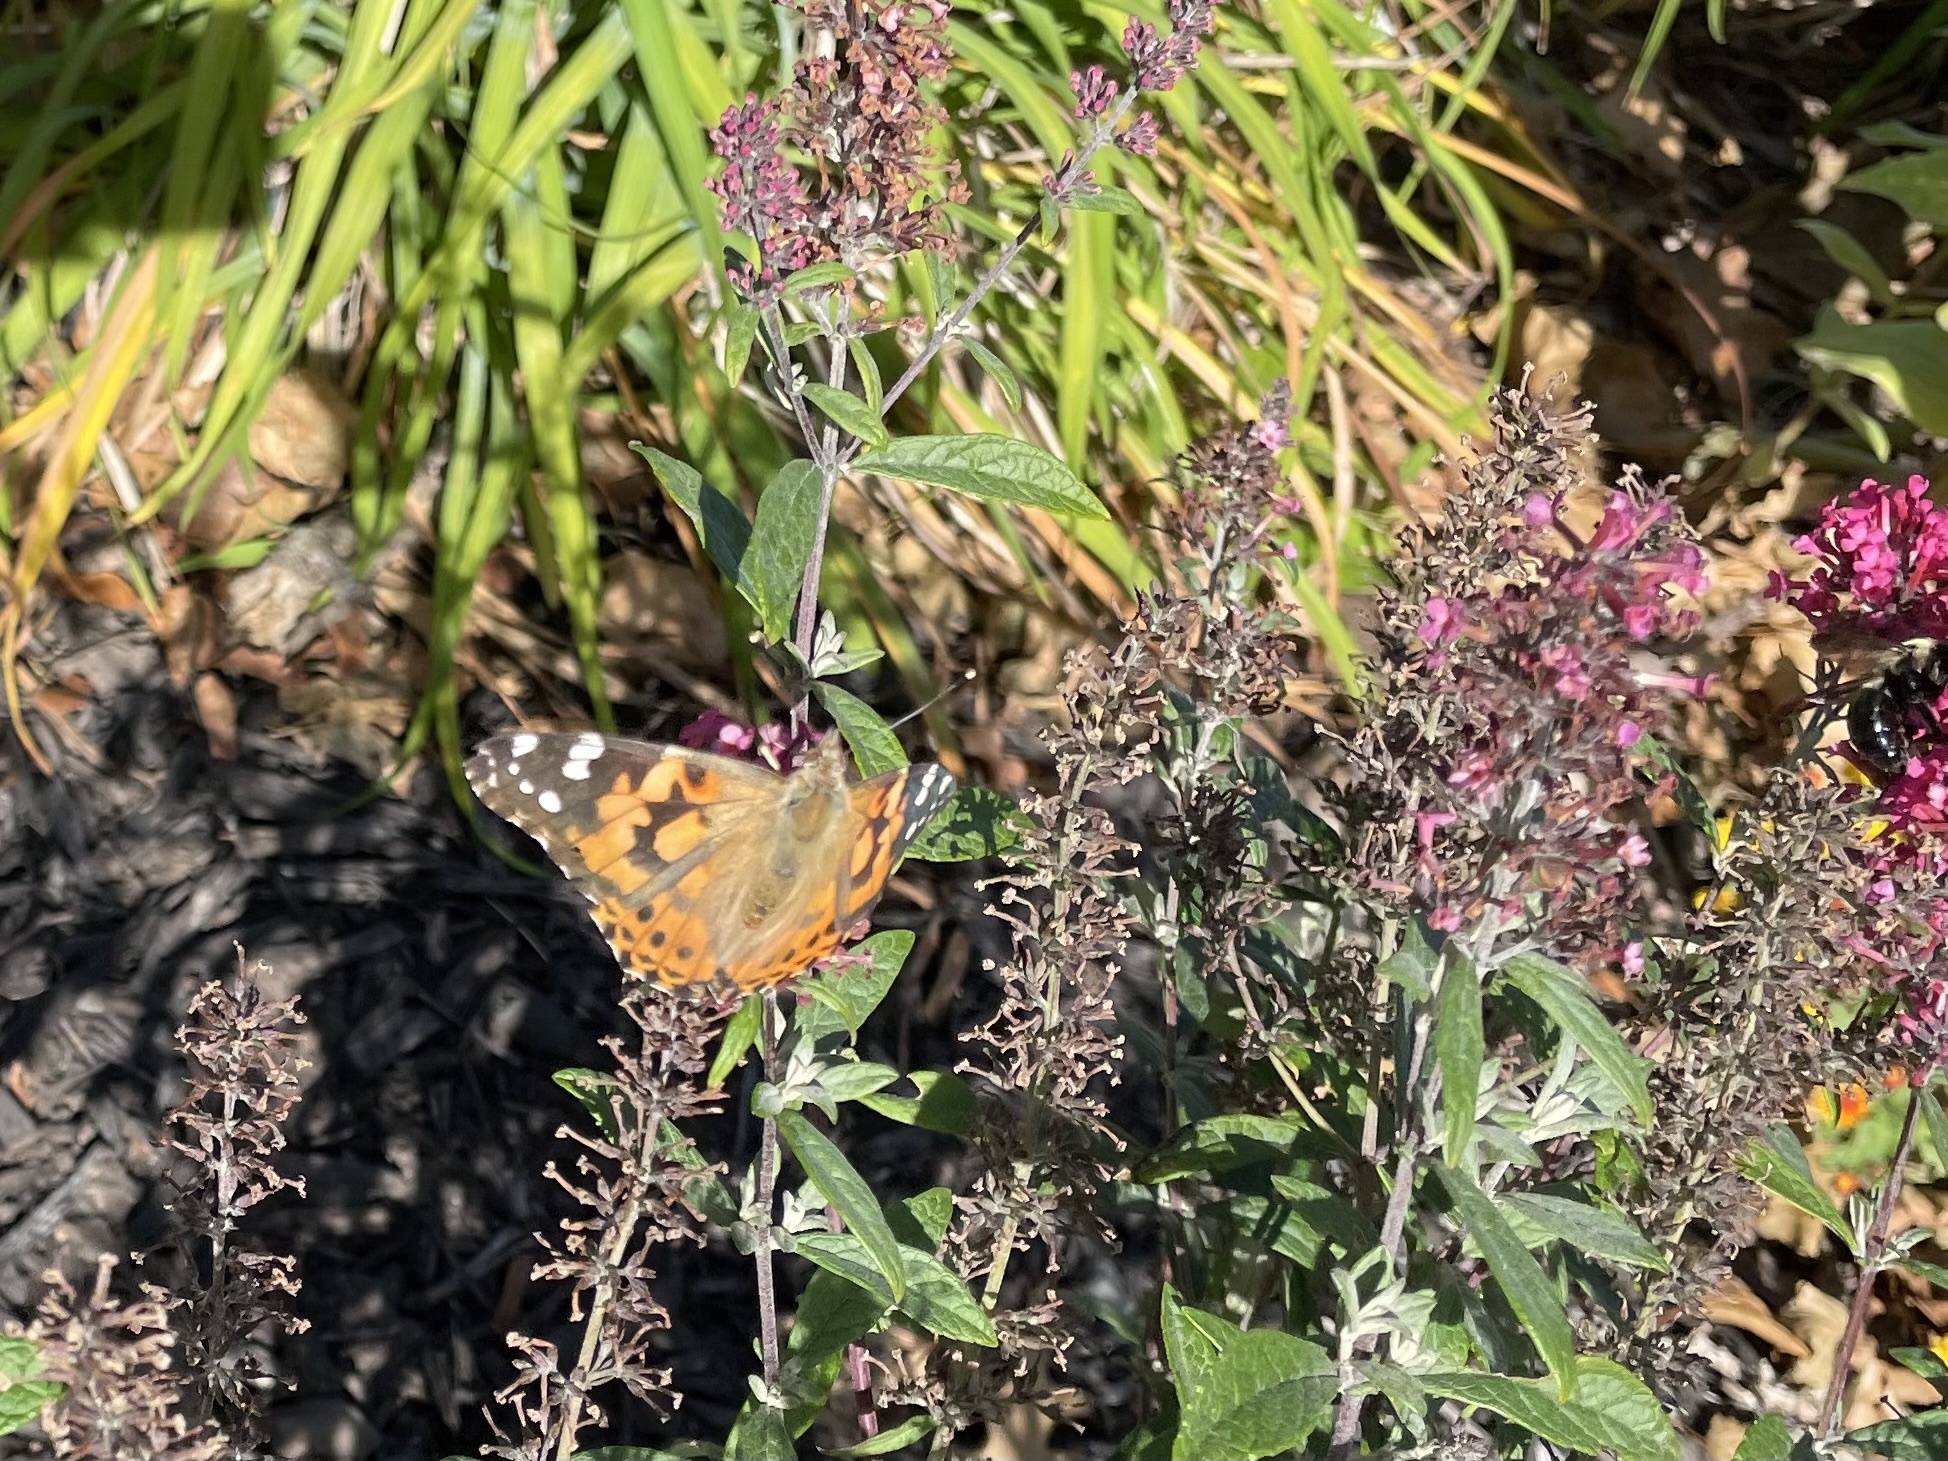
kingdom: Animalia
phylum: Arthropoda
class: Insecta
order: Lepidoptera
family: Nymphalidae
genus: Vanessa
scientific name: Vanessa cardui
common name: Painted lady
